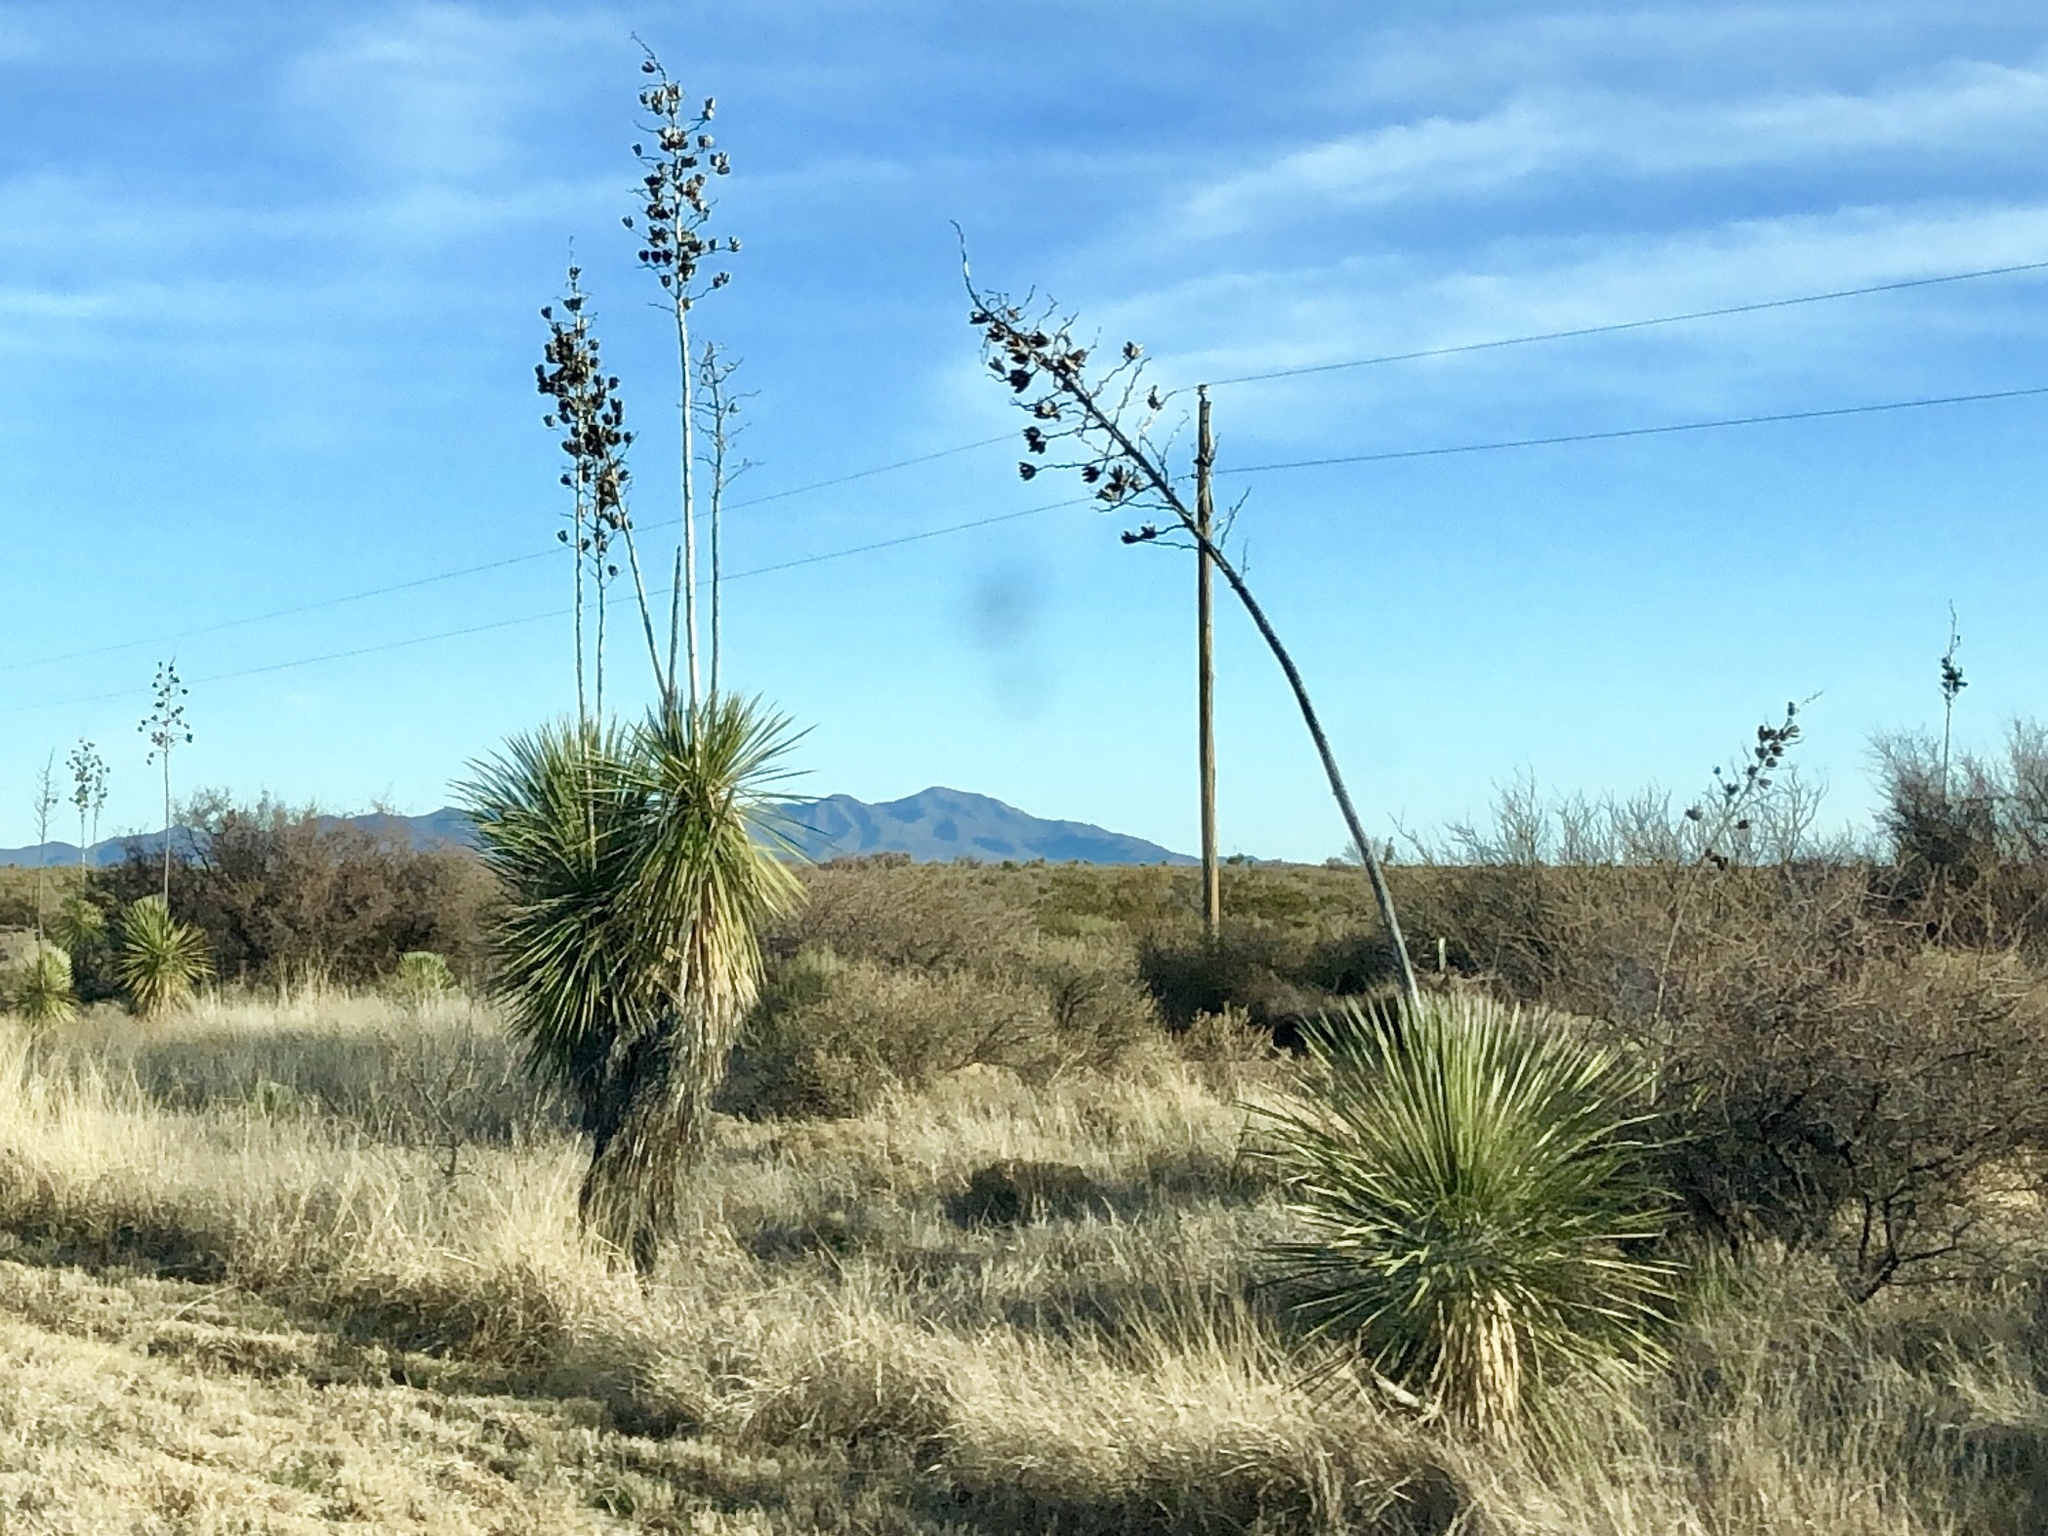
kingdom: Plantae
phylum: Tracheophyta
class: Liliopsida
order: Asparagales
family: Asparagaceae
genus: Yucca
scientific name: Yucca elata
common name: Palmella
